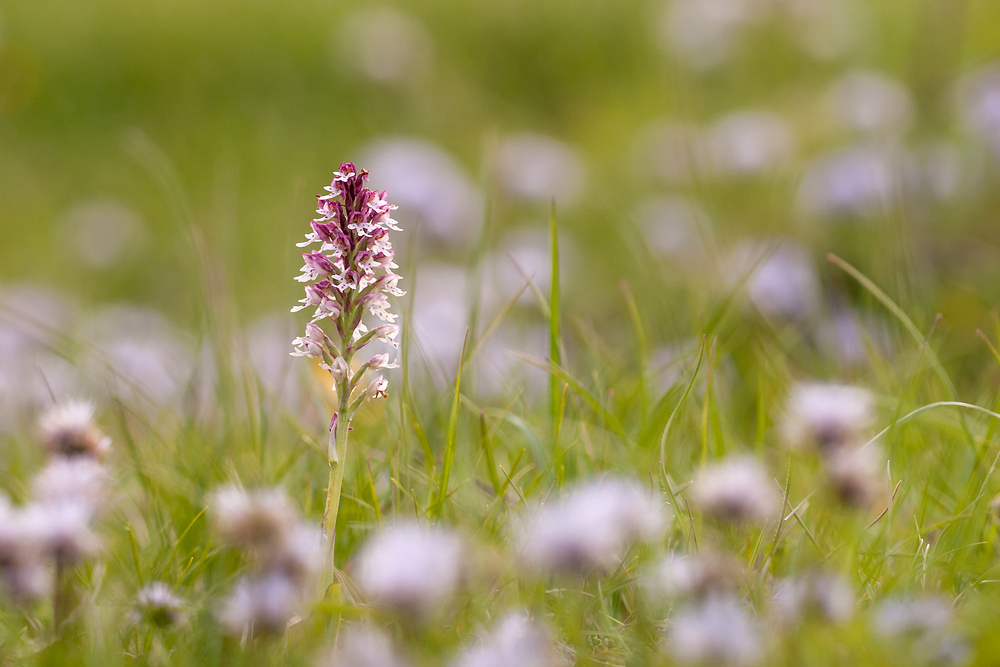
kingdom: Plantae
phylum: Tracheophyta
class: Liliopsida
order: Asparagales
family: Orchidaceae
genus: Neotinea
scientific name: Neotinea ustulata
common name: Burnt orchid
